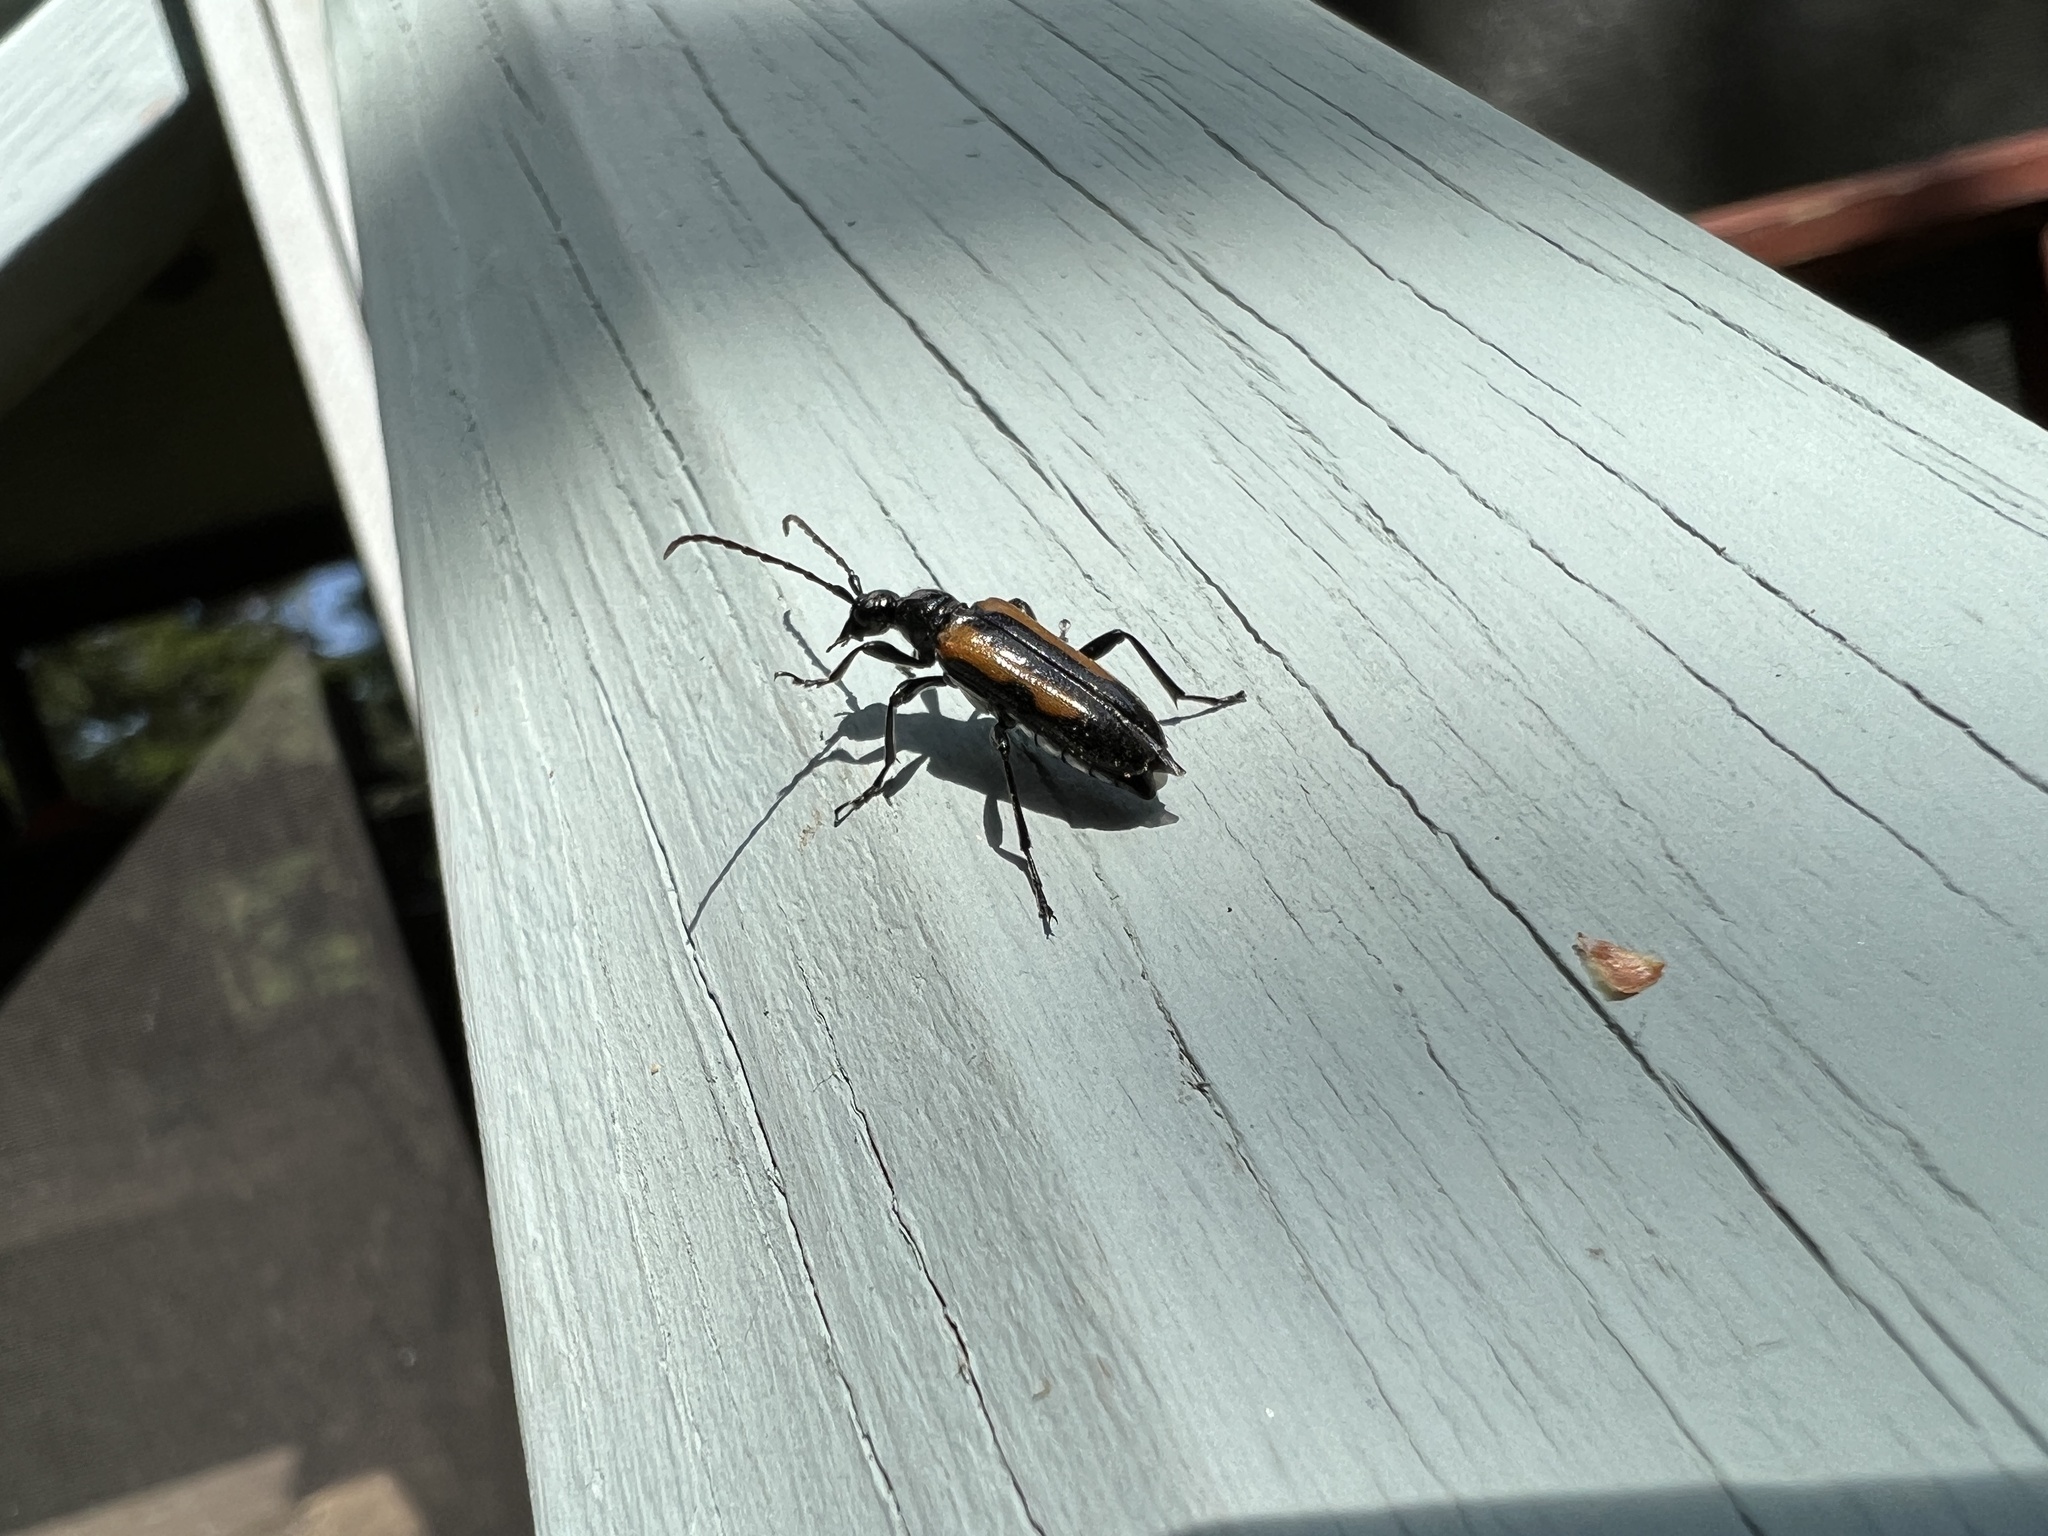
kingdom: Animalia
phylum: Arthropoda
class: Insecta
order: Coleoptera
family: Cerambycidae
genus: Strangalepta
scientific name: Strangalepta abbreviata
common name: Strangalepta flower longhorn beetle
